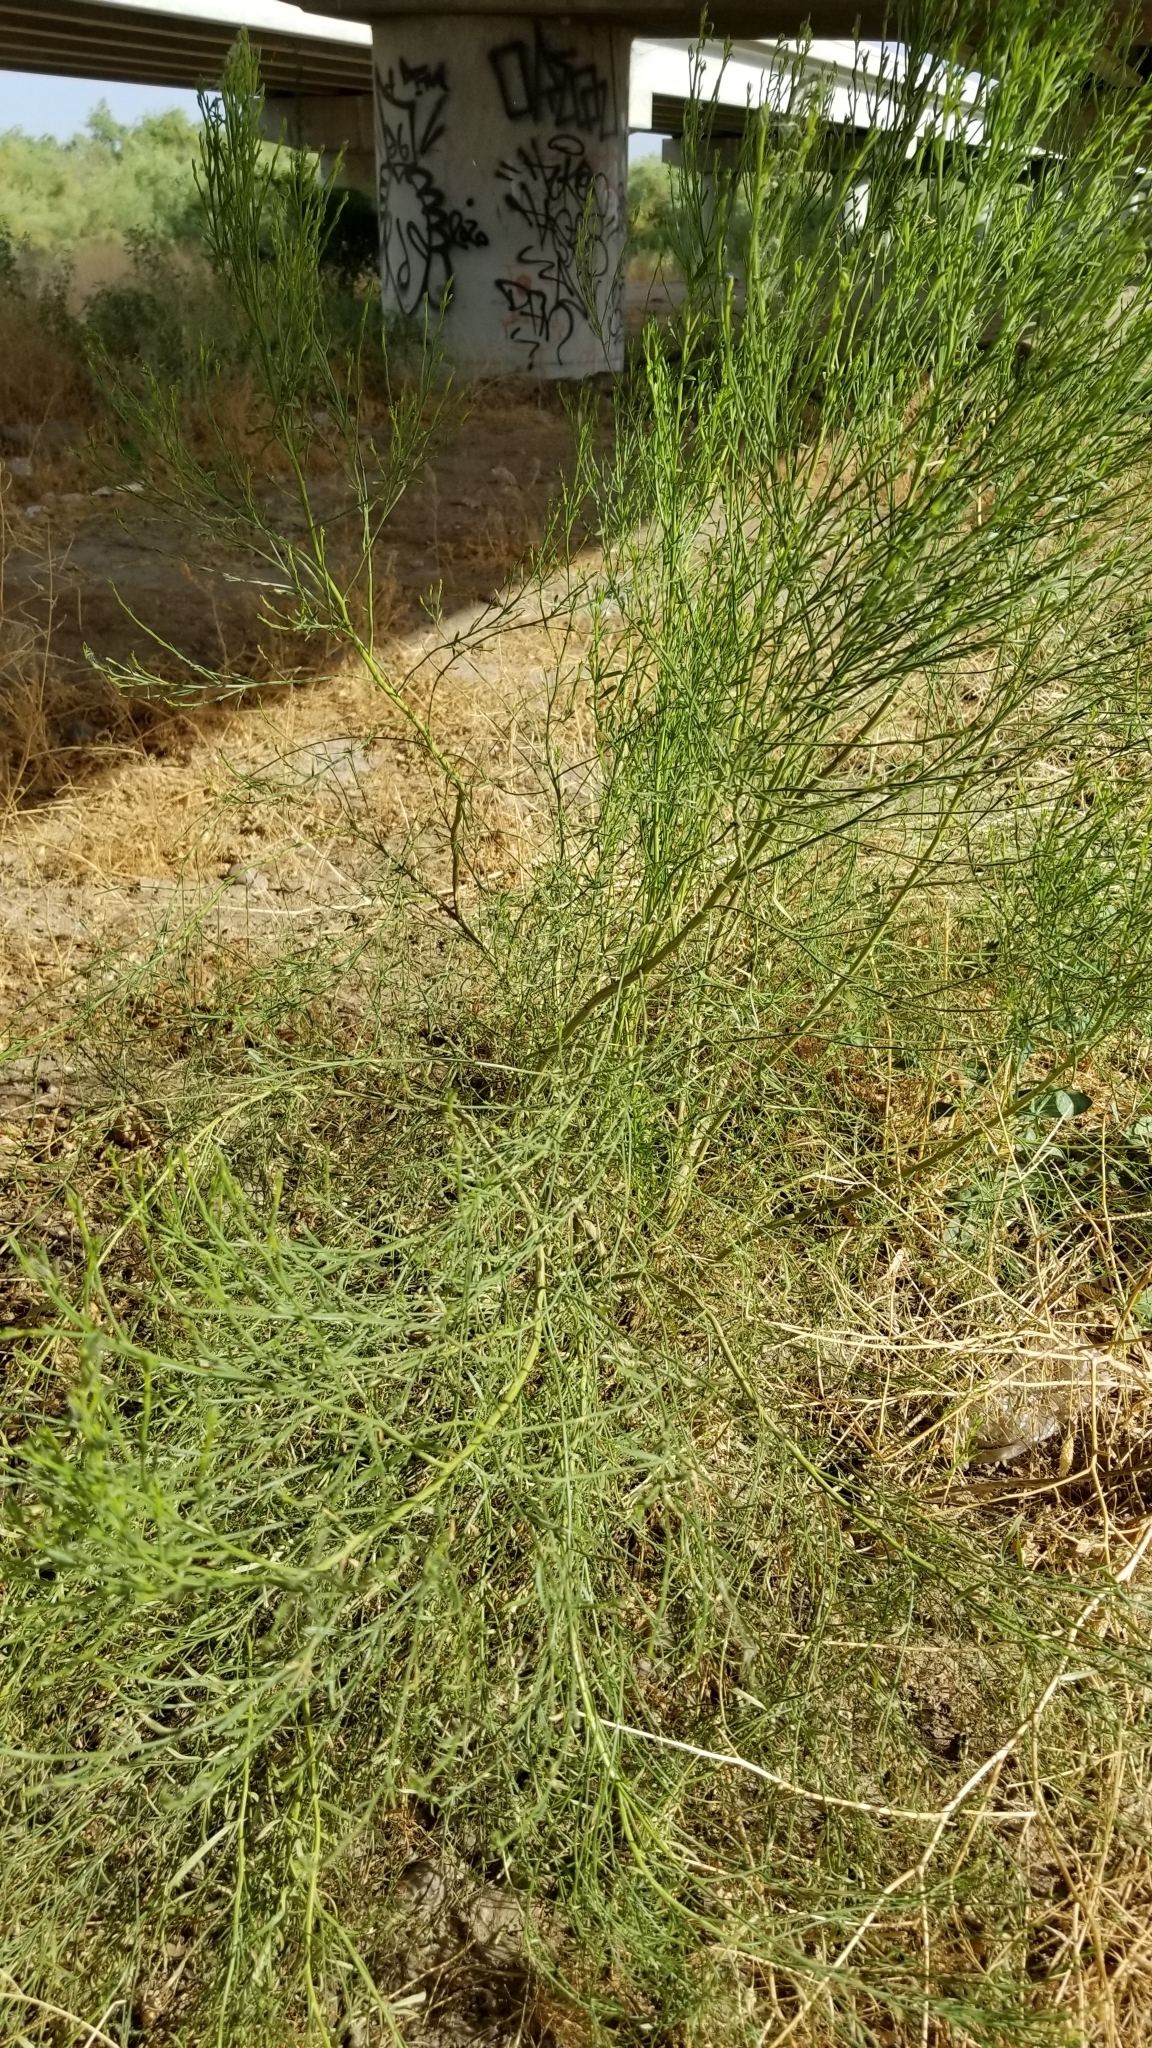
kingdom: Plantae
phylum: Tracheophyta
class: Magnoliopsida
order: Asterales
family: Asteraceae
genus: Baccharis
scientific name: Baccharis sarothroides
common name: Desert-broom
